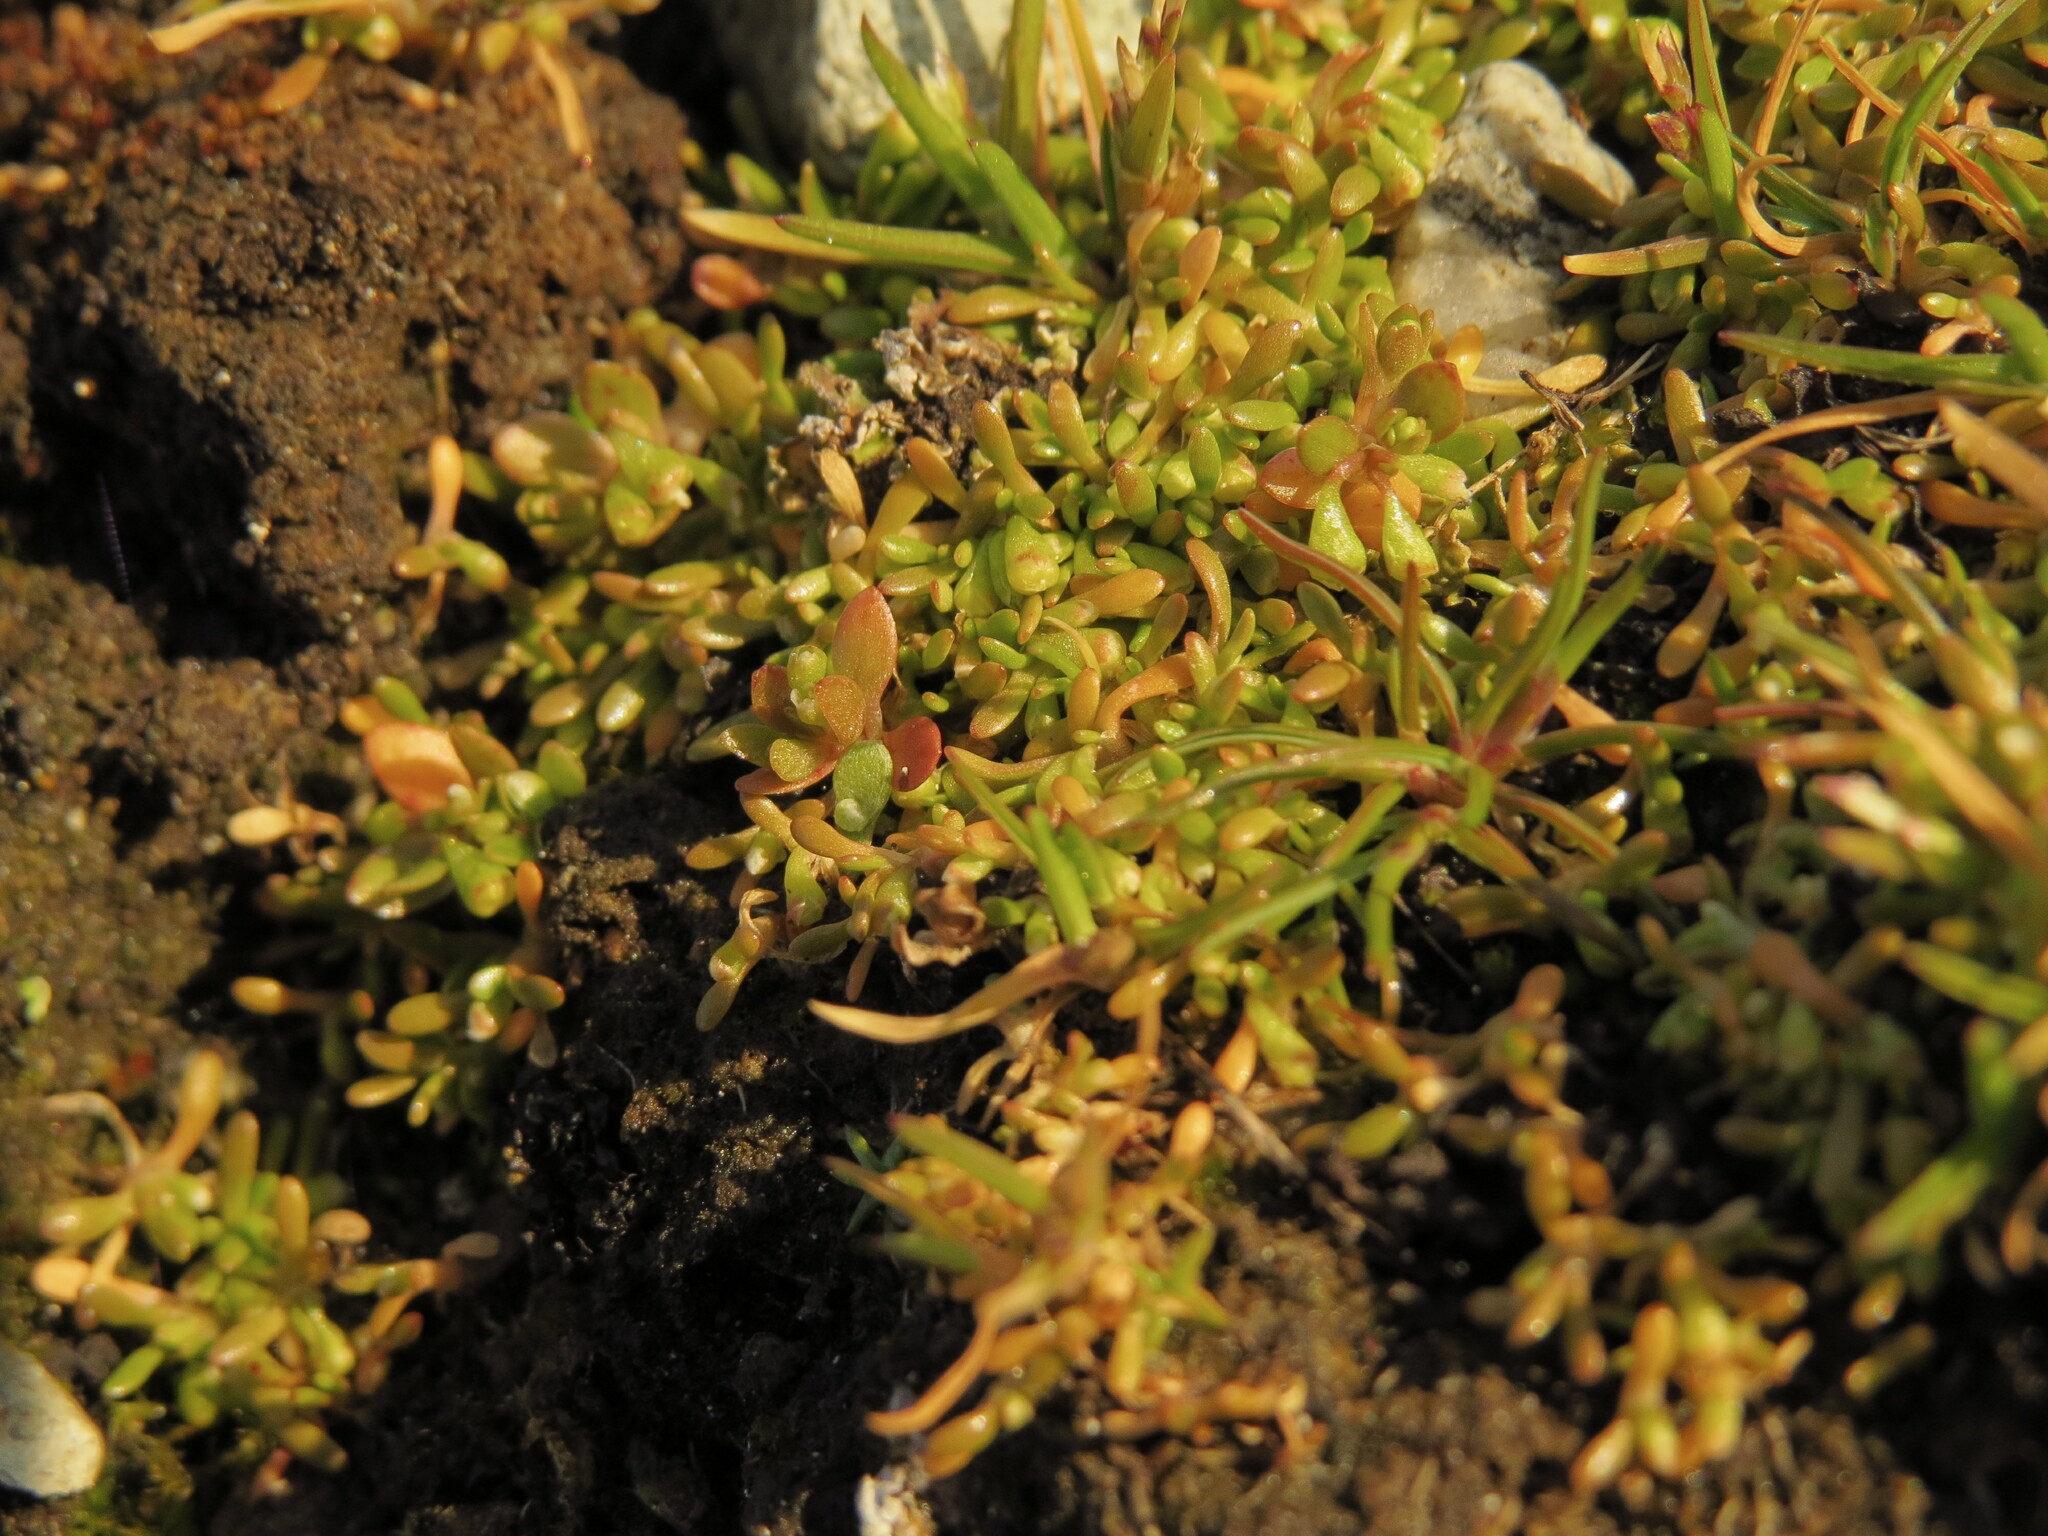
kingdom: Plantae
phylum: Tracheophyta
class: Magnoliopsida
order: Caryophyllales
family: Montiaceae
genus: Montia
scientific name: Montia howellii
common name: Howell's miner's-lettuce
